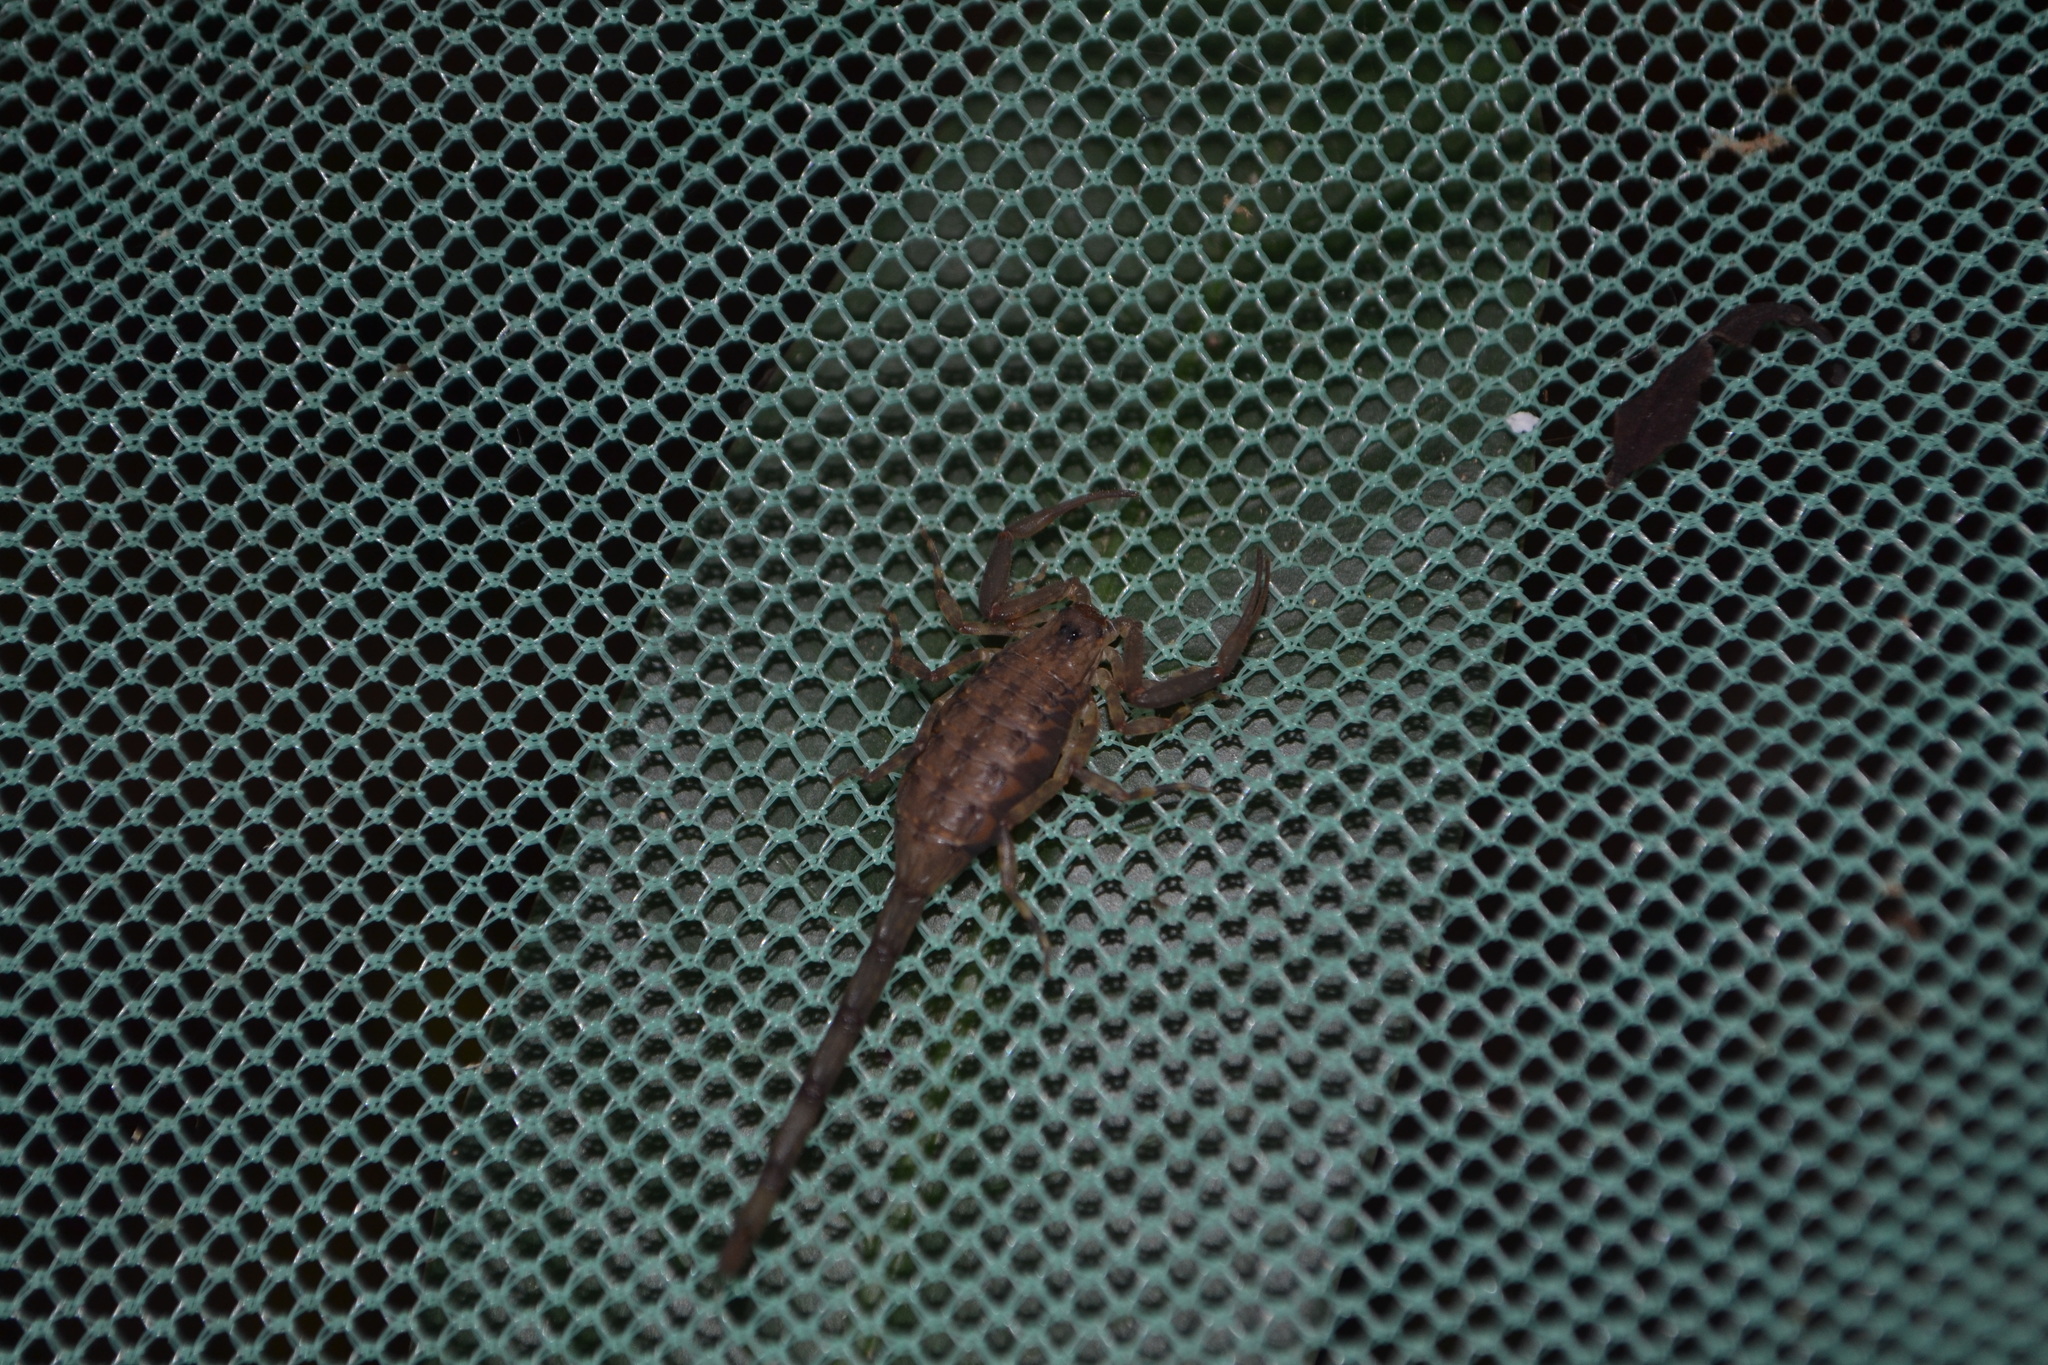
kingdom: Animalia
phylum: Arthropoda
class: Arachnida
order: Scorpiones
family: Buthidae
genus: Isometrus
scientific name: Isometrus thurstoni
